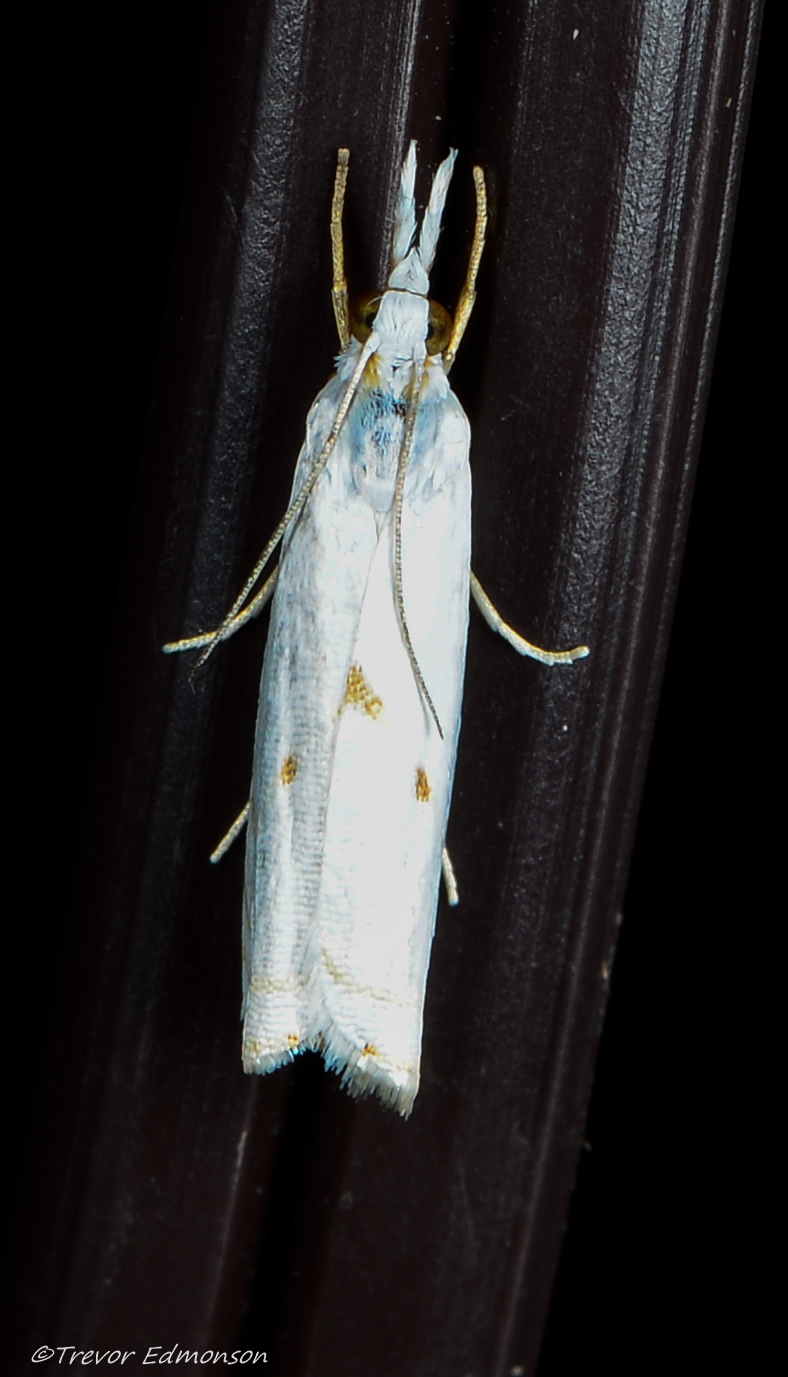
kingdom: Animalia
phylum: Arthropoda
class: Insecta
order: Lepidoptera
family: Crambidae
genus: Microcrambus
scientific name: Microcrambus biguttellus
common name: Gold-stripe grass-veneer moth
